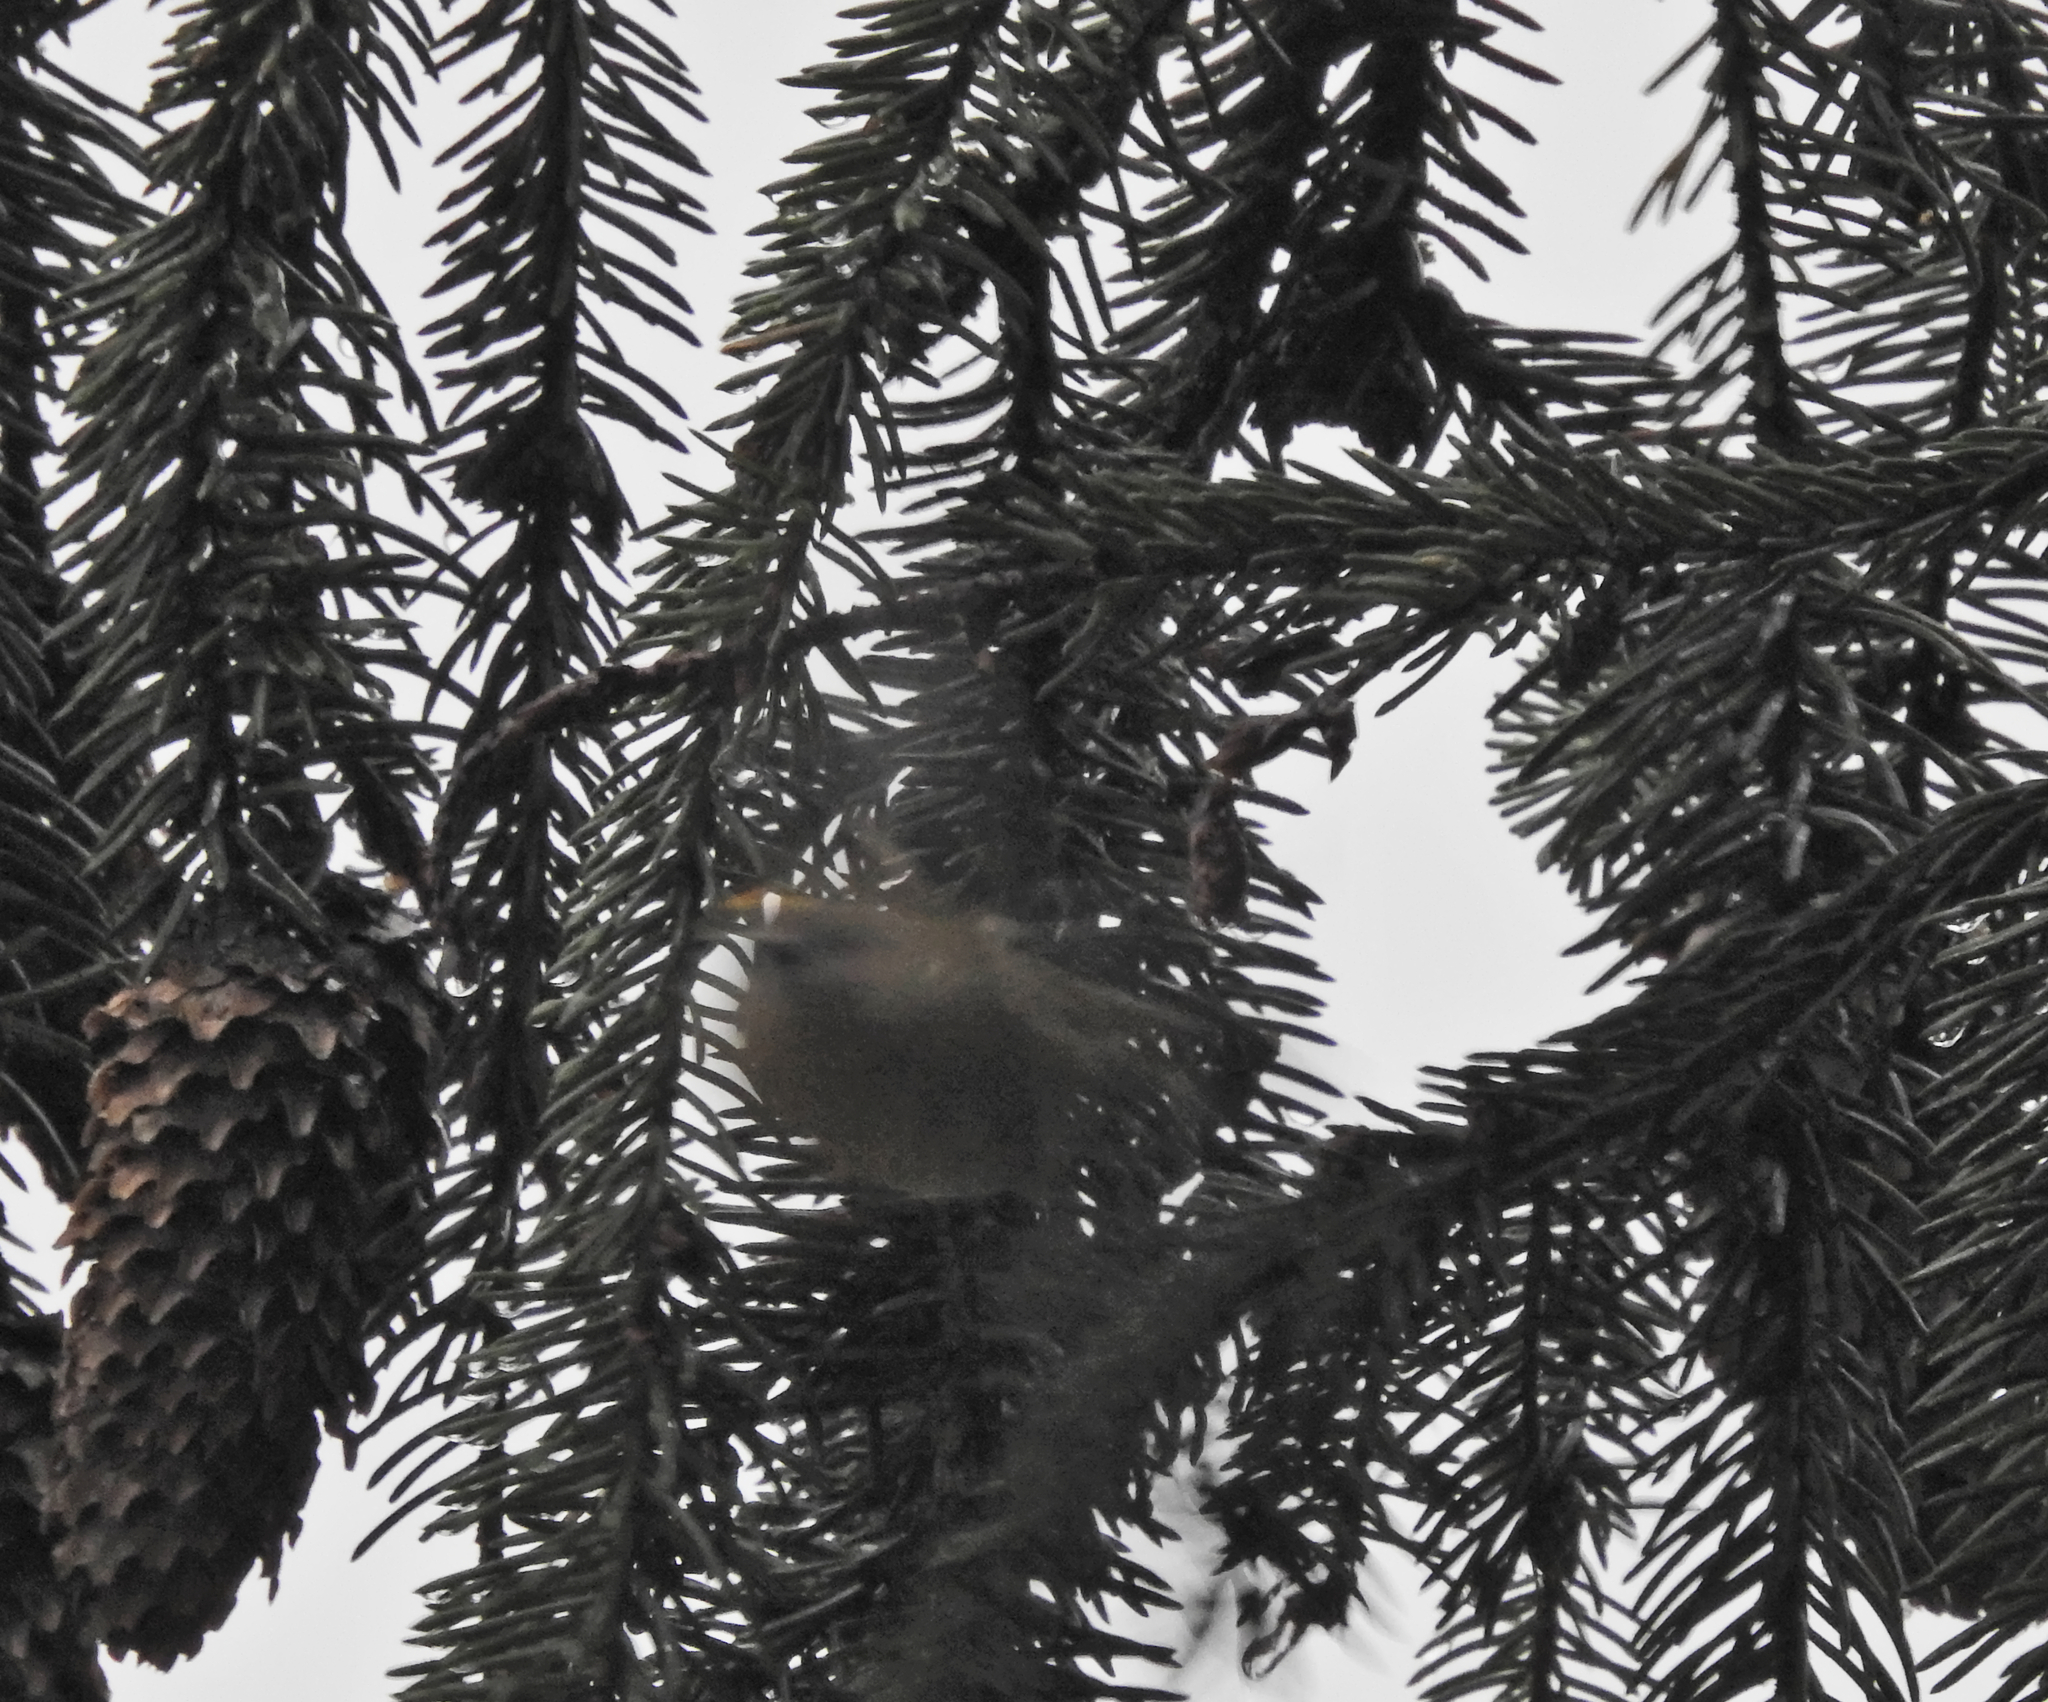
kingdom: Animalia
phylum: Chordata
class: Aves
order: Passeriformes
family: Regulidae
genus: Regulus
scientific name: Regulus regulus
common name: Goldcrest
